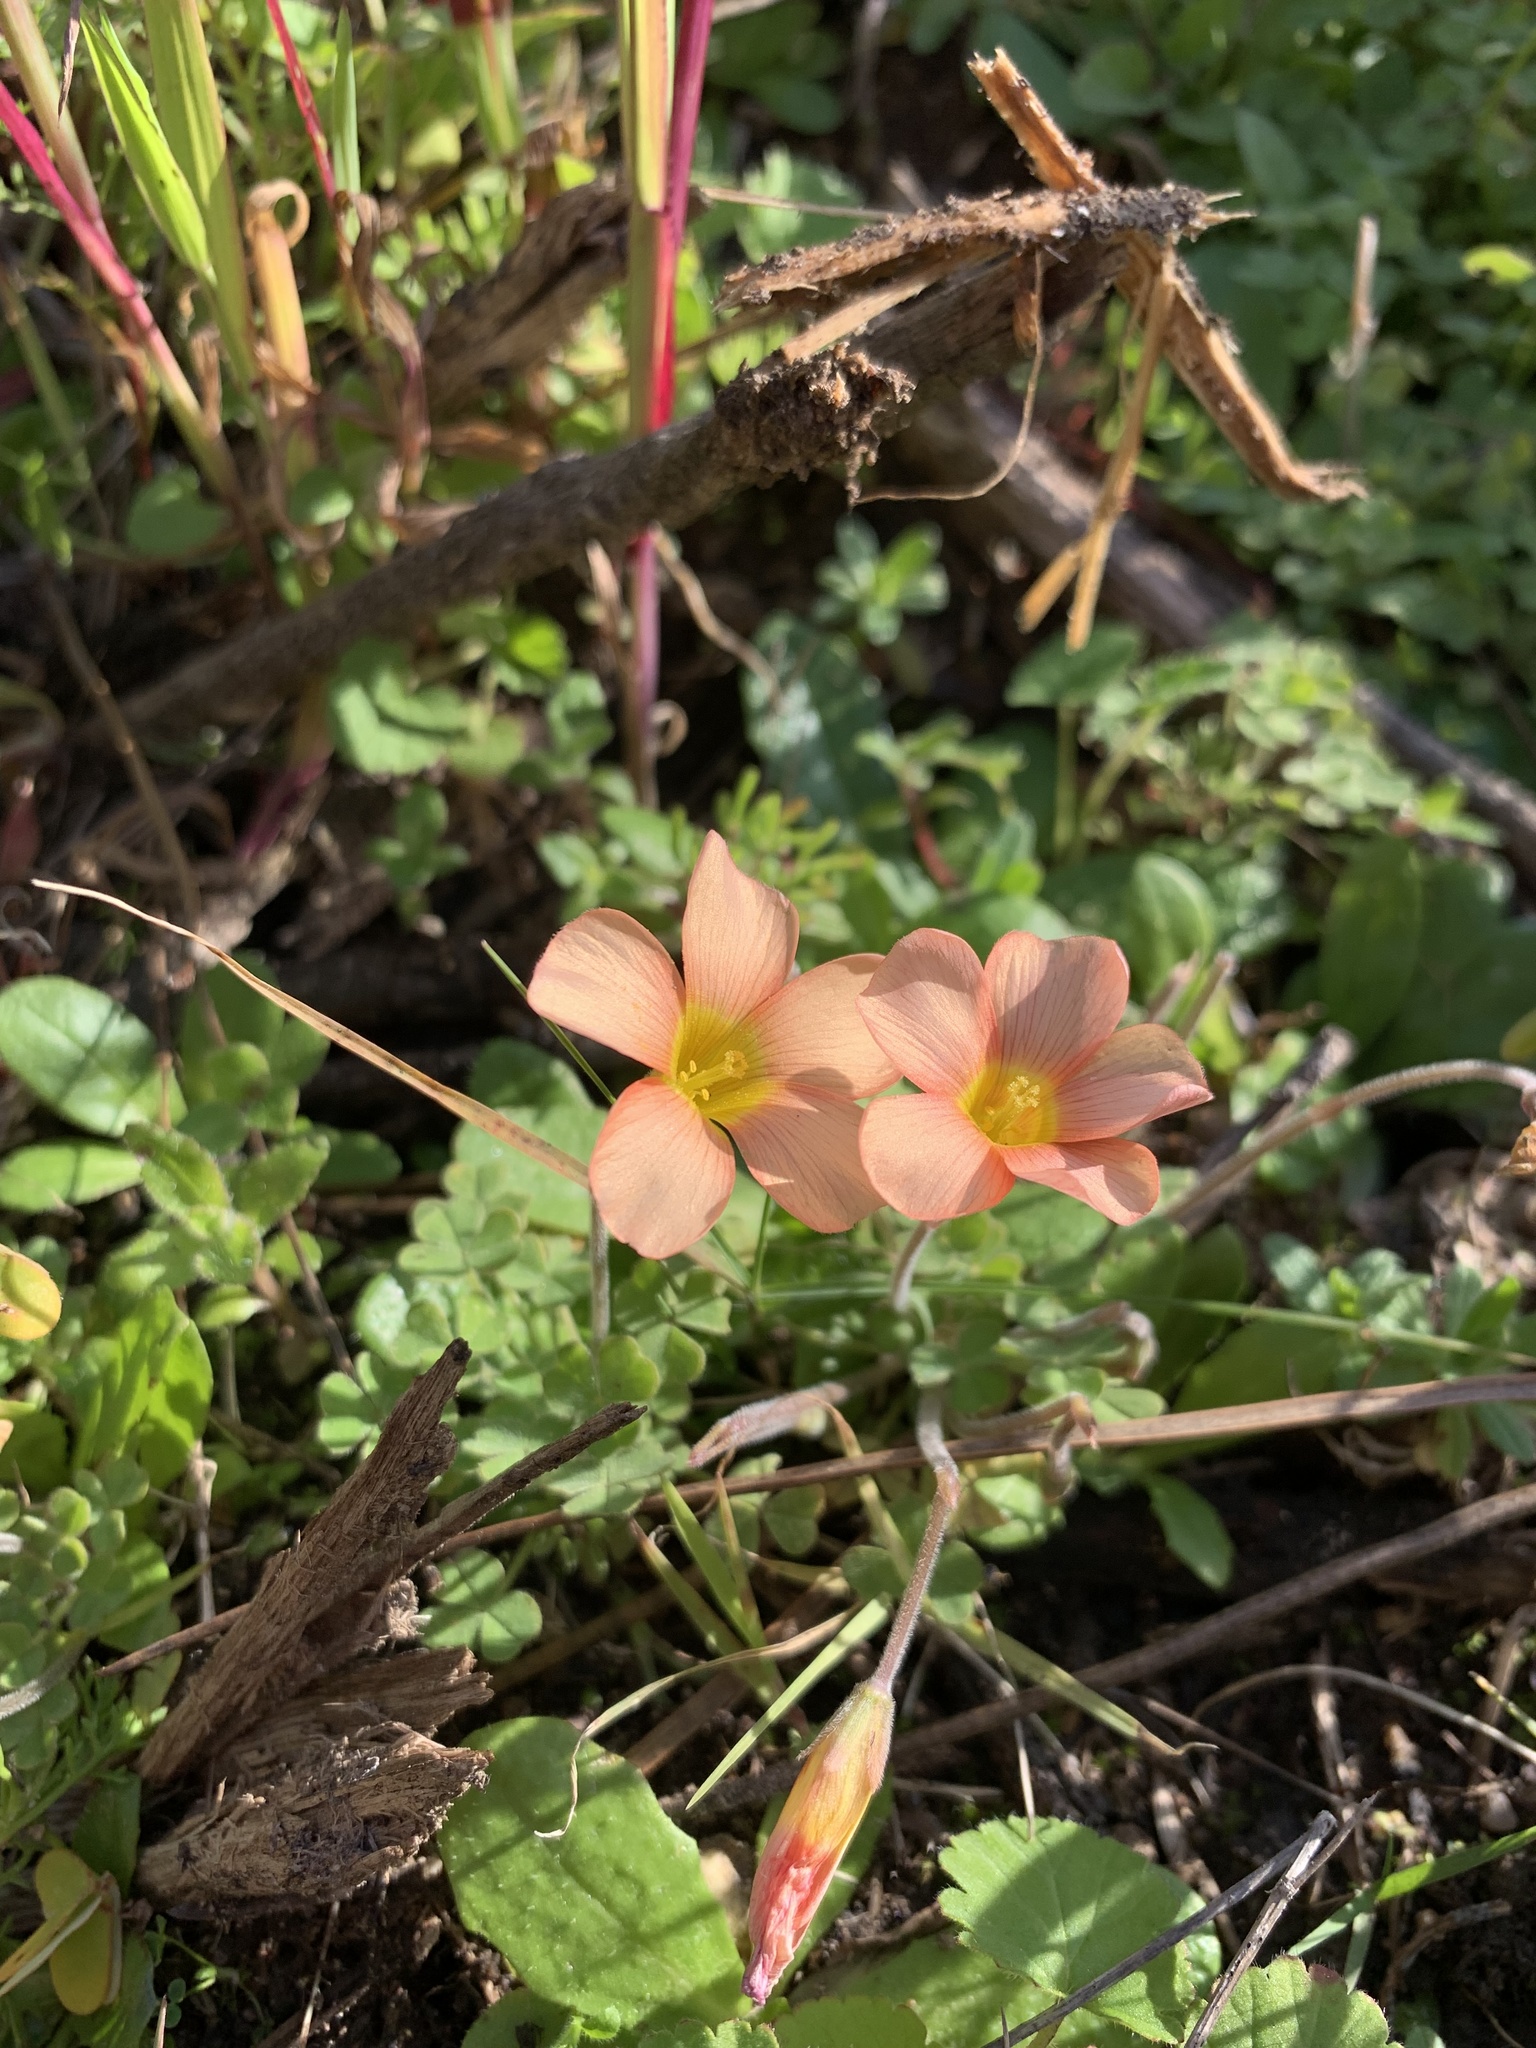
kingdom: Plantae
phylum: Tracheophyta
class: Magnoliopsida
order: Oxalidales
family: Oxalidaceae
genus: Oxalis
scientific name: Oxalis obtusa
